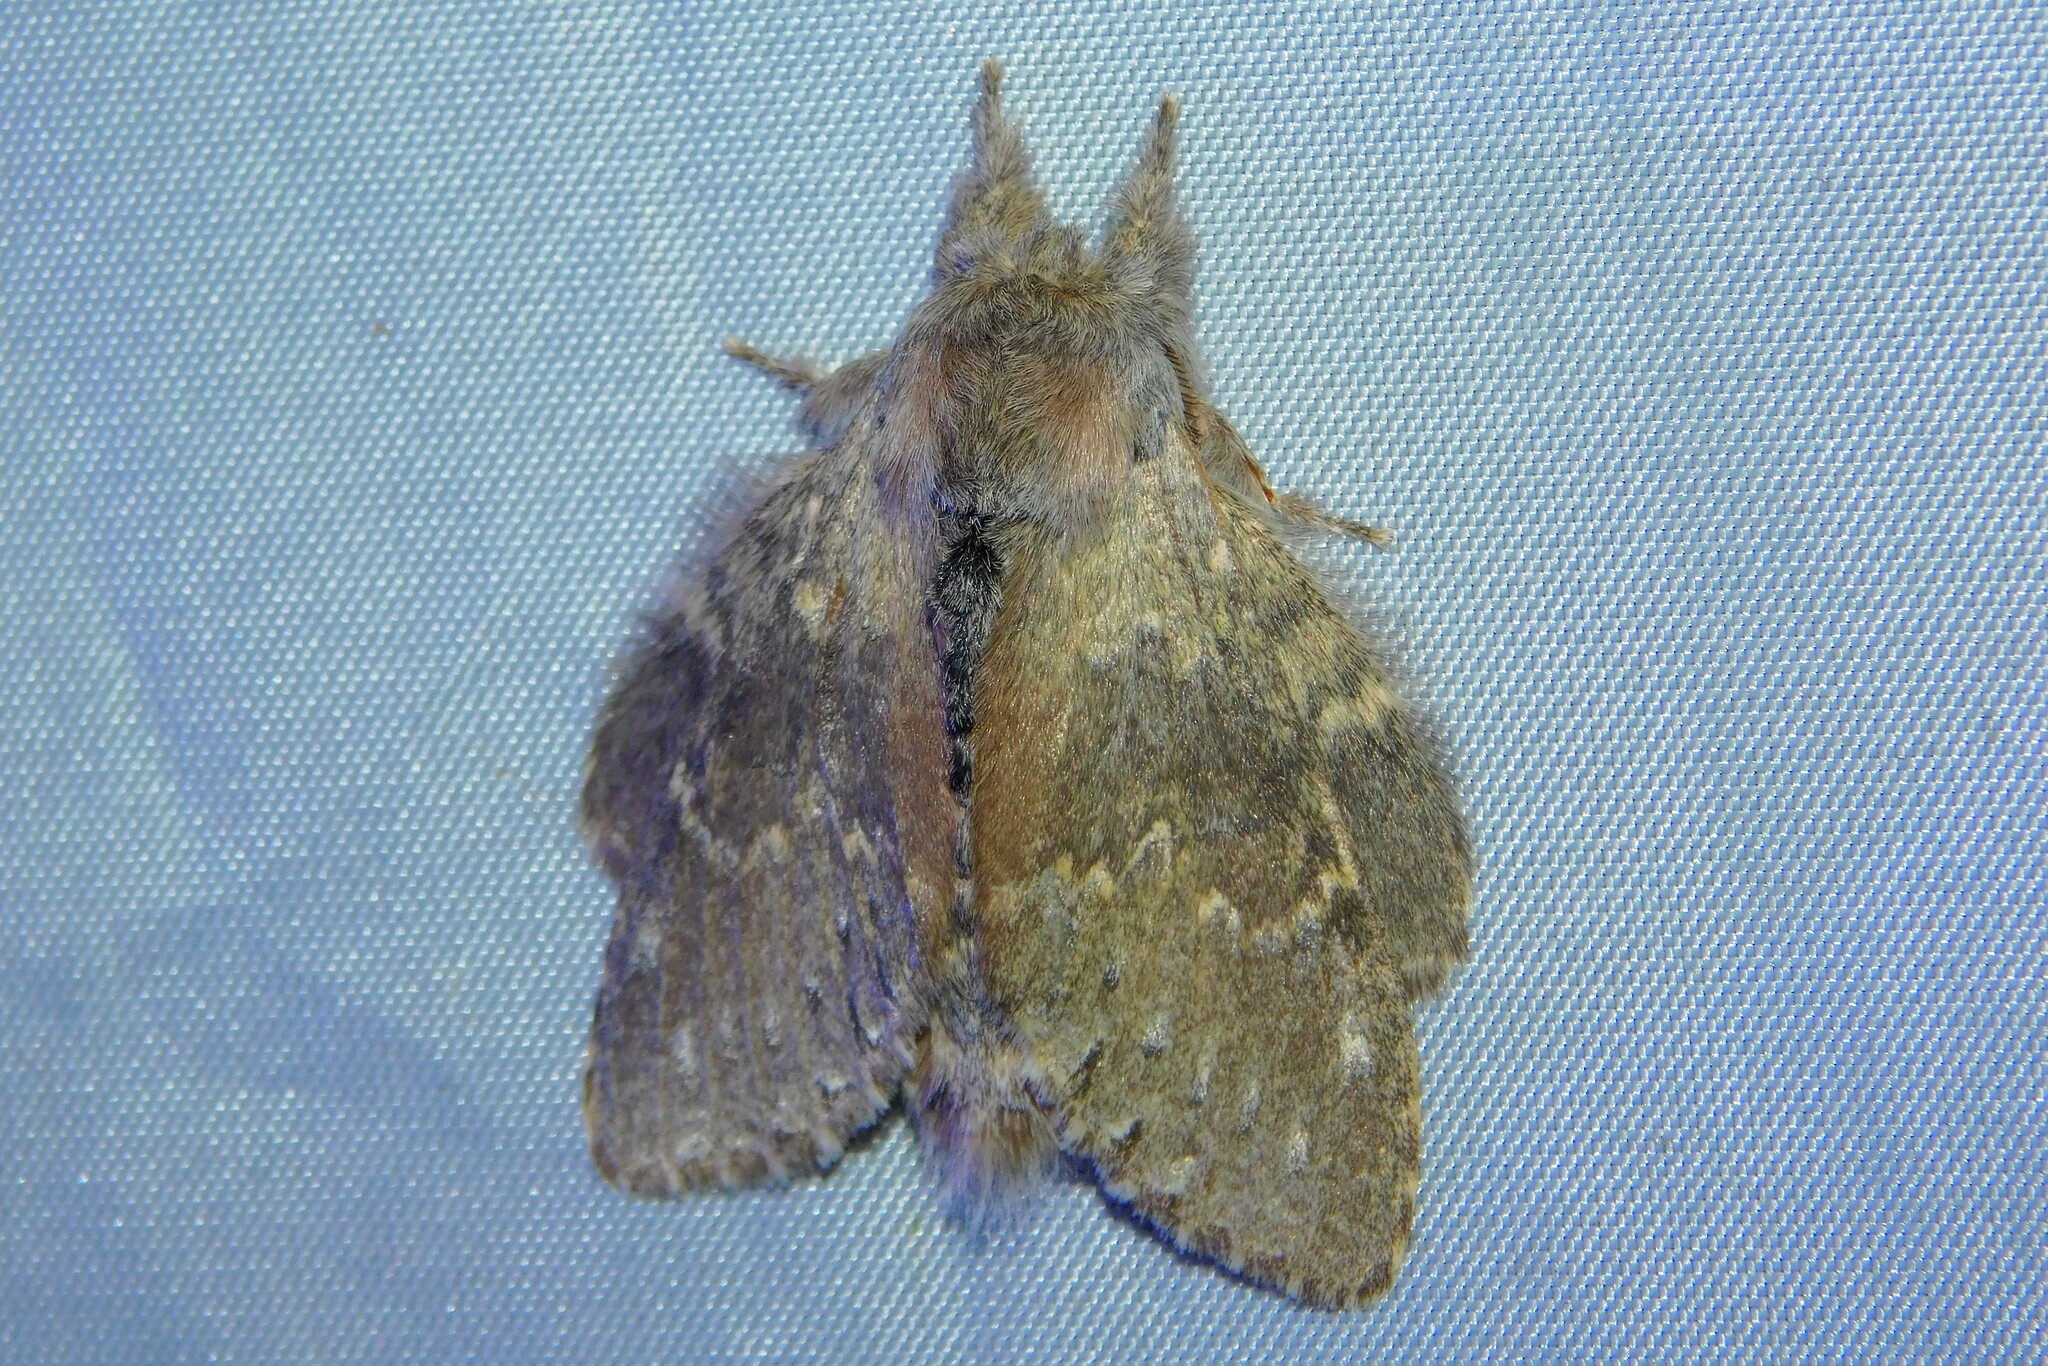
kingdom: Animalia
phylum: Arthropoda
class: Insecta
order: Lepidoptera
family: Notodontidae
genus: Stauropus
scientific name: Stauropus fagi
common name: Lobster moth
